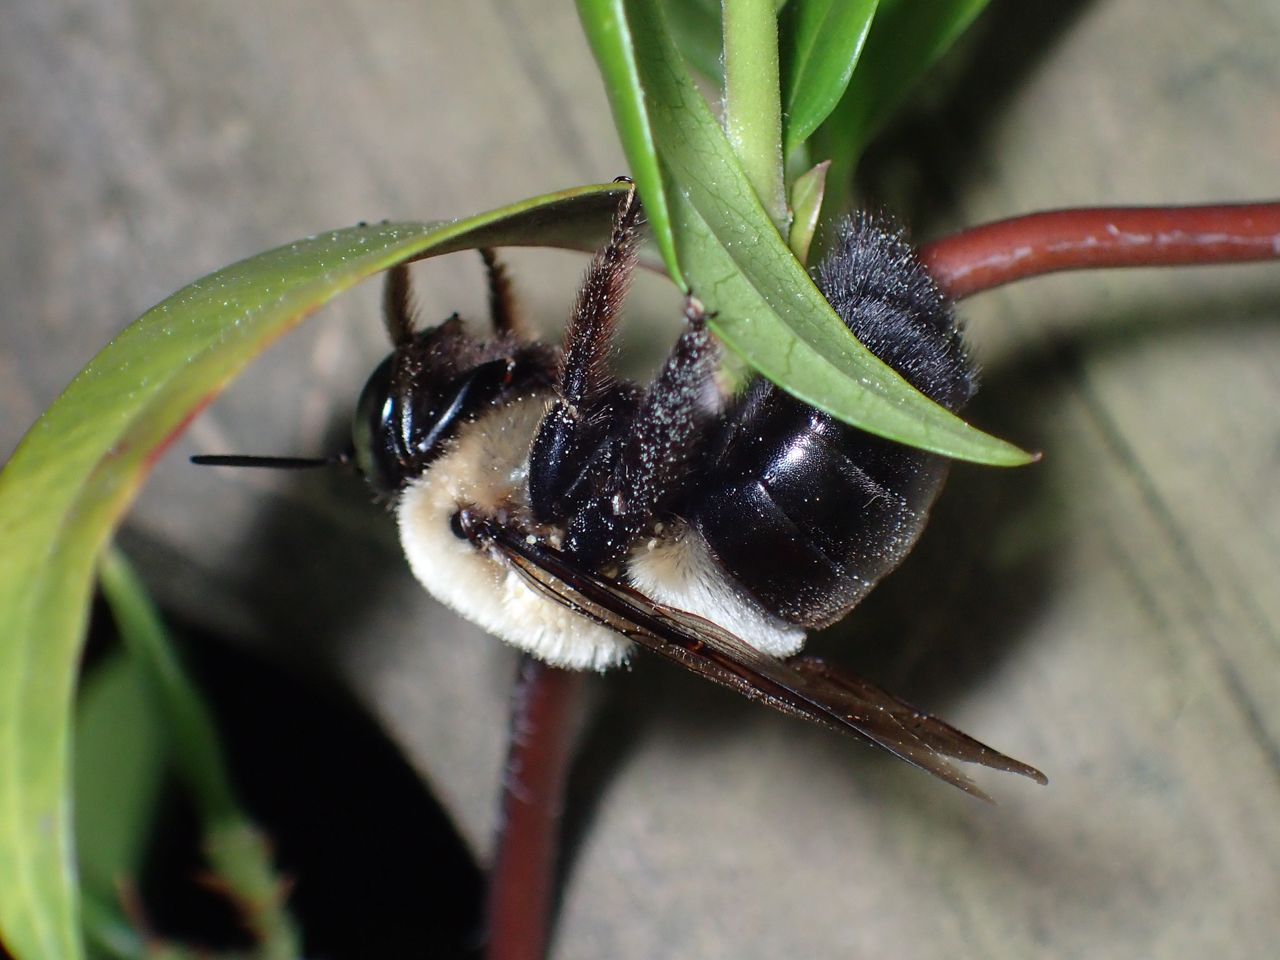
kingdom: Animalia
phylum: Arthropoda
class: Insecta
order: Hymenoptera
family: Apidae
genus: Xylocopa
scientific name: Xylocopa virginica
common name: Carpenter bee
